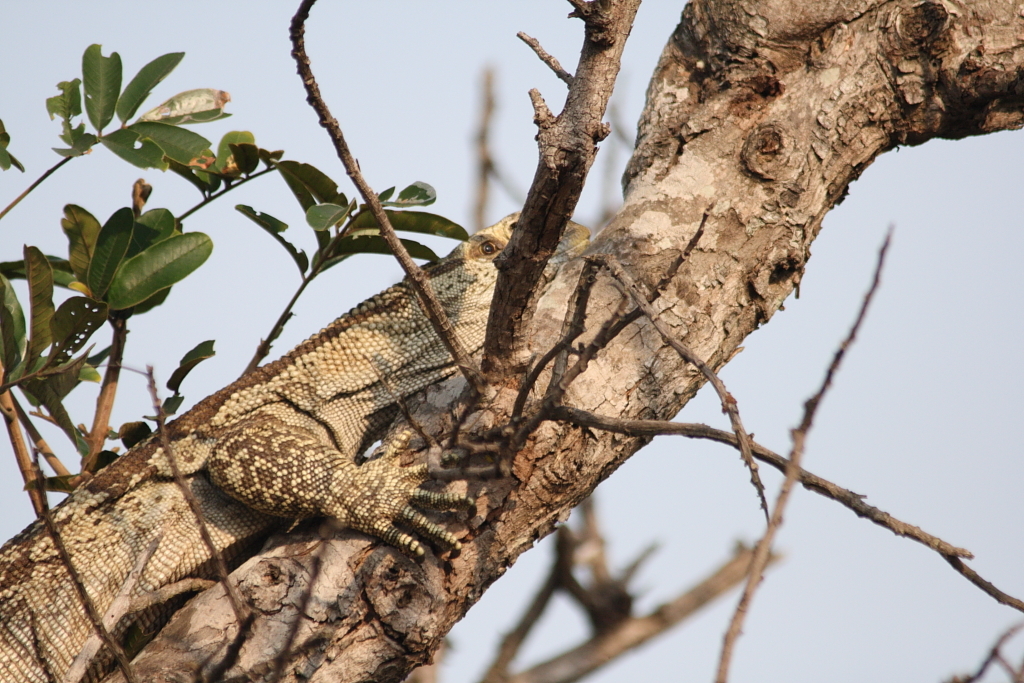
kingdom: Animalia
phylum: Chordata
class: Squamata
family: Varanidae
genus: Varanus
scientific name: Varanus albigularis
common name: White-throated monitor
